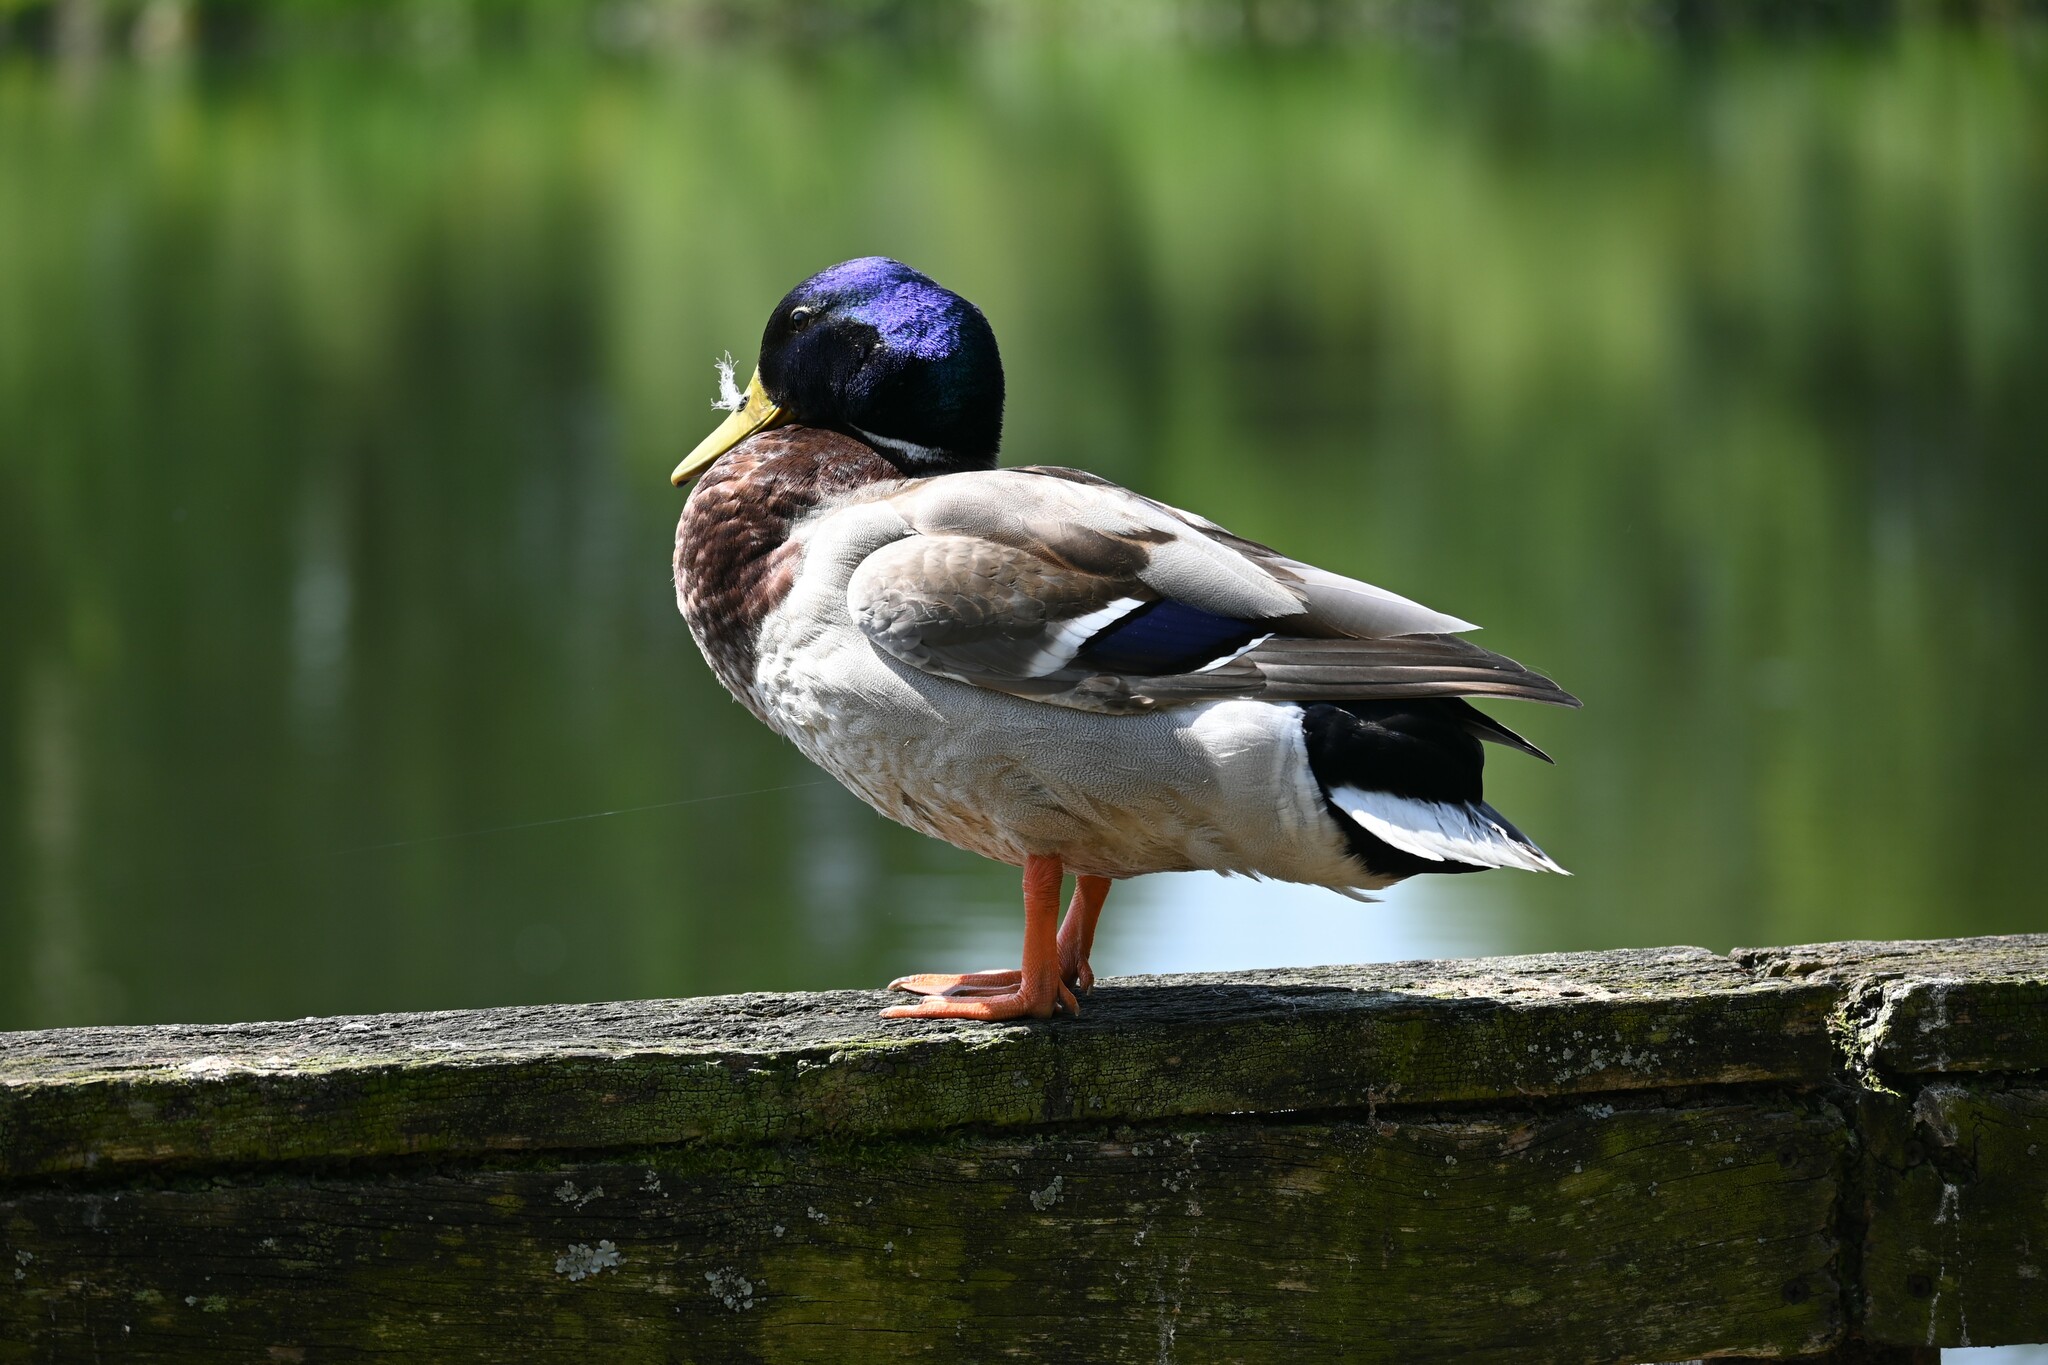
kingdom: Animalia
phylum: Chordata
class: Aves
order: Anseriformes
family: Anatidae
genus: Anas
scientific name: Anas platyrhynchos
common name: Mallard
